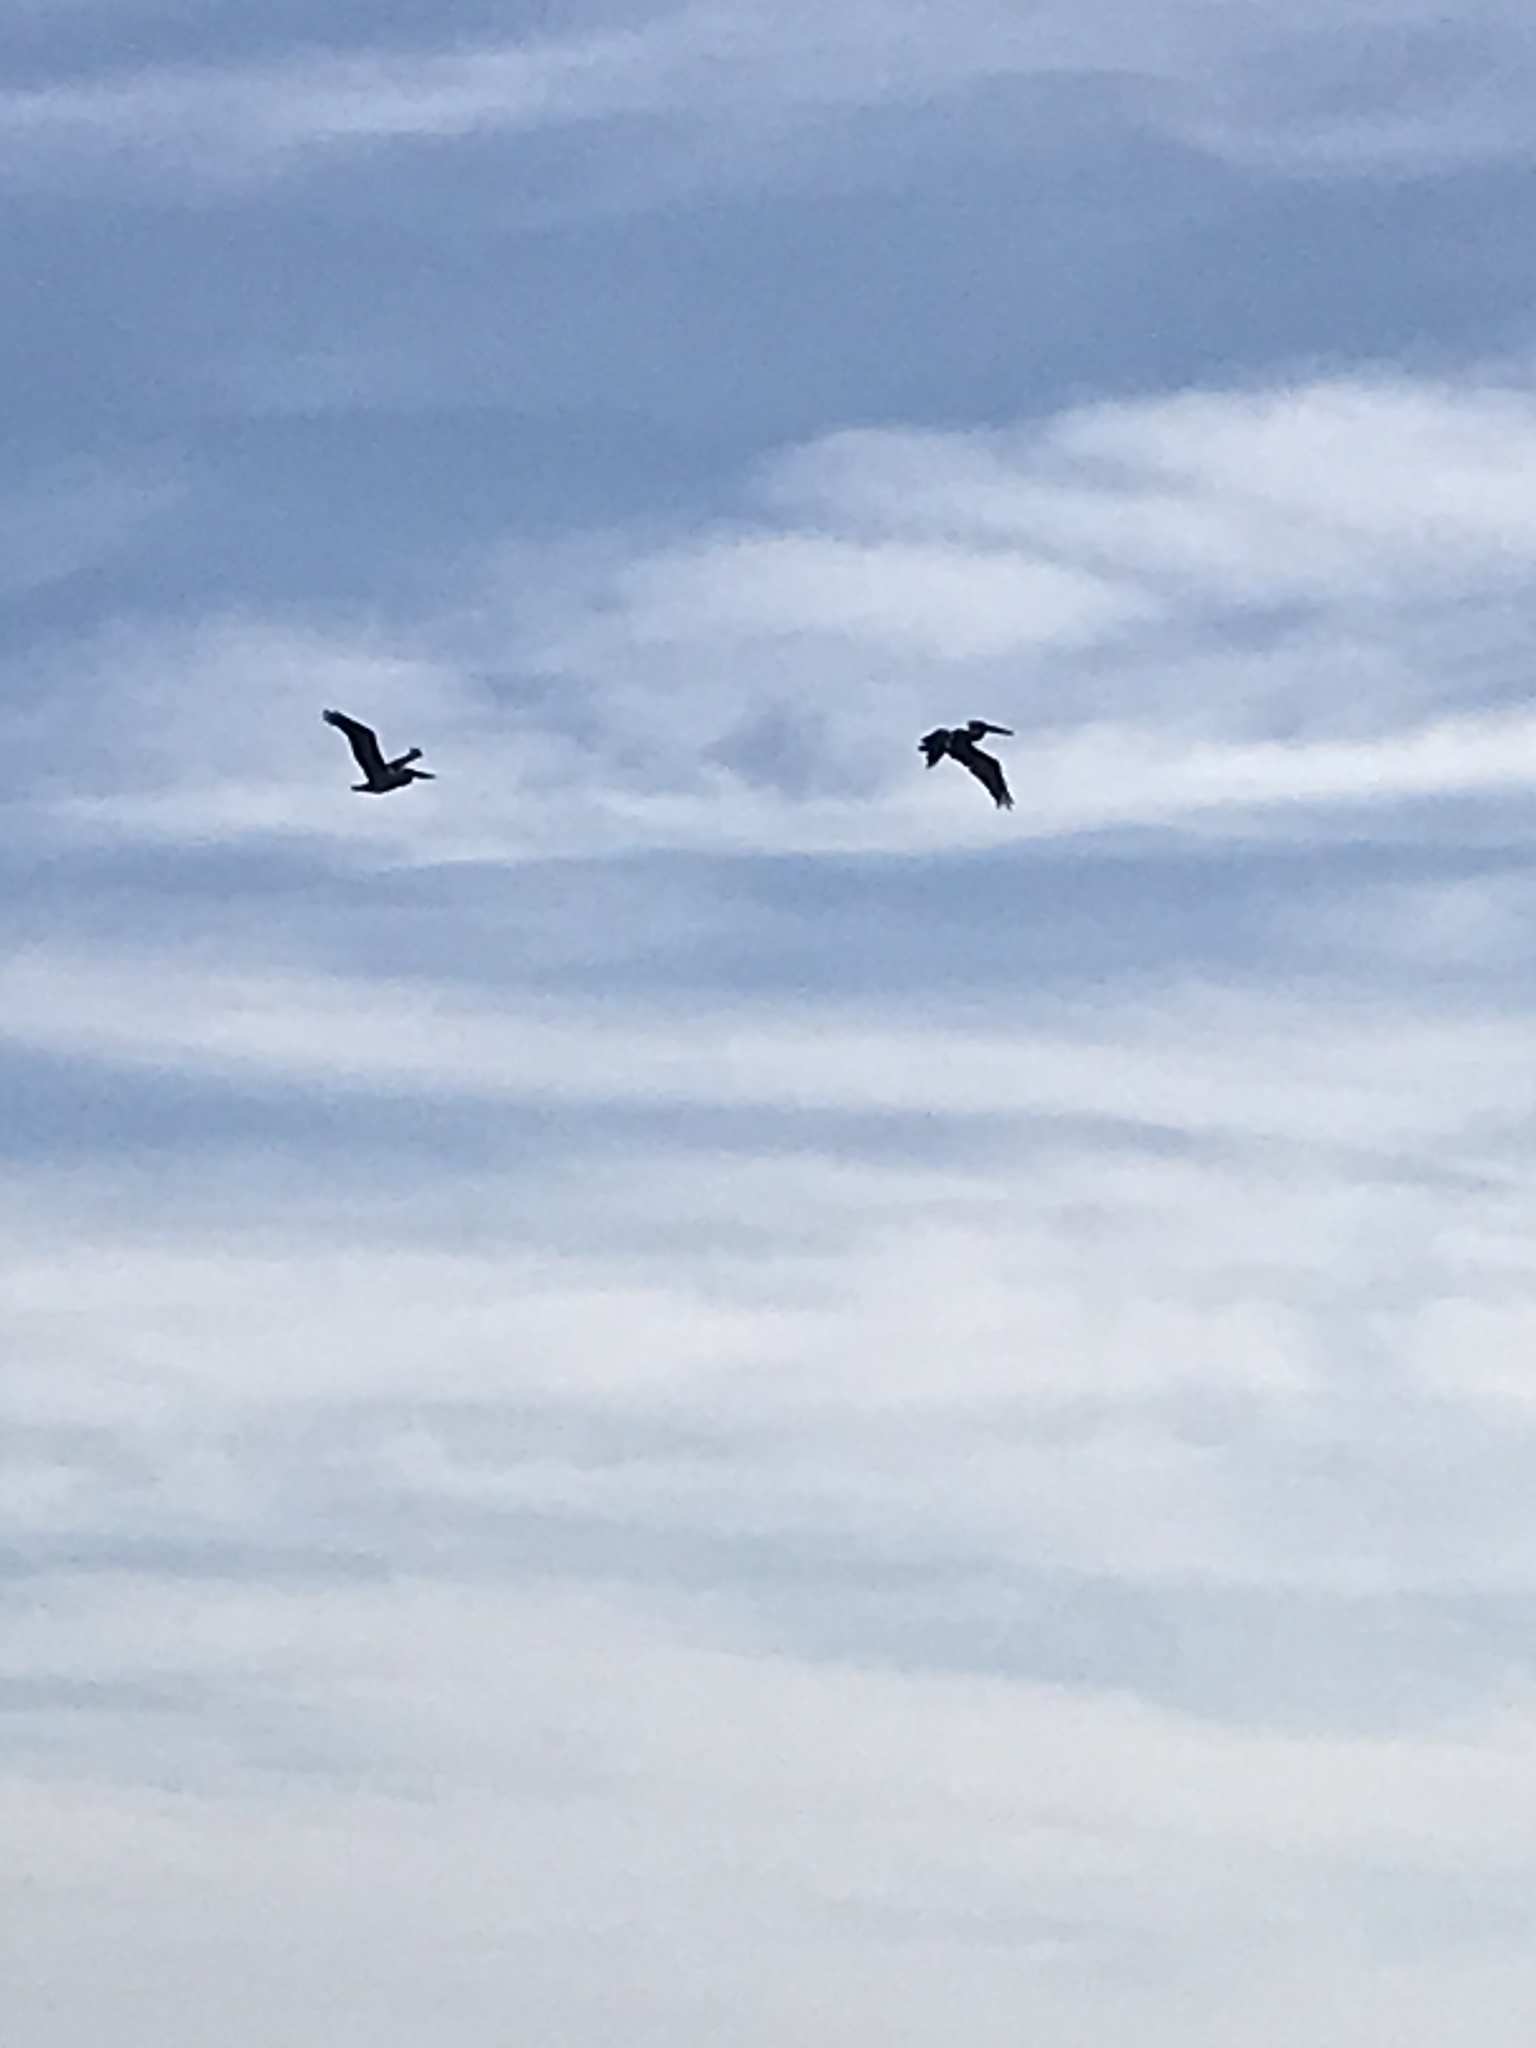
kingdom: Animalia
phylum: Chordata
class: Aves
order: Pelecaniformes
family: Pelecanidae
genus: Pelecanus
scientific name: Pelecanus occidentalis
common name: Brown pelican
